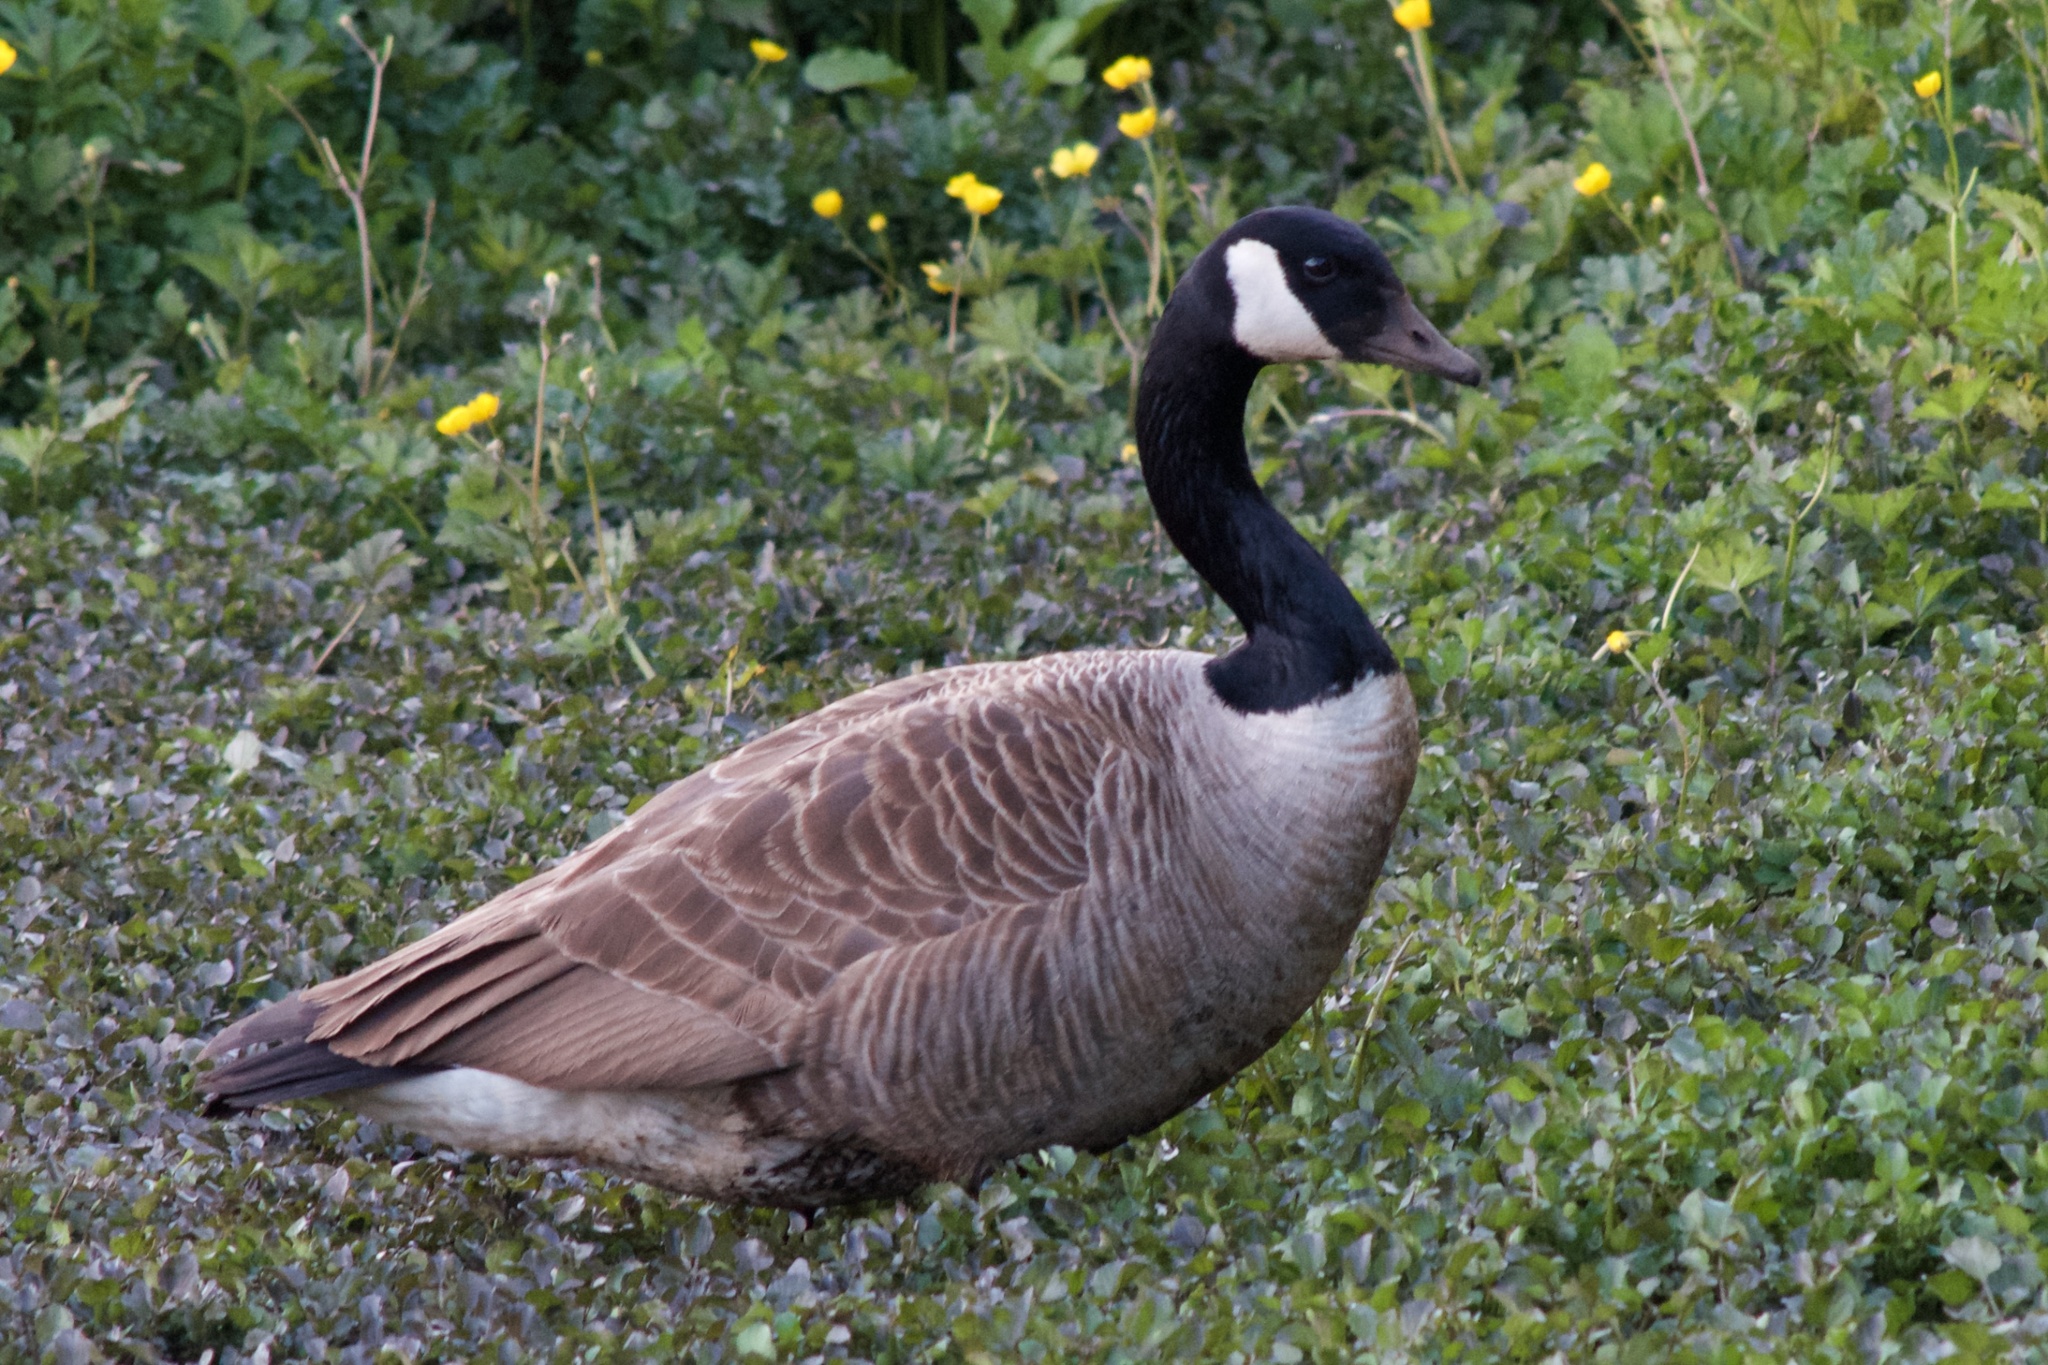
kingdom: Animalia
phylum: Chordata
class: Aves
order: Anseriformes
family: Anatidae
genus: Branta
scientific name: Branta canadensis
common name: Canada goose
